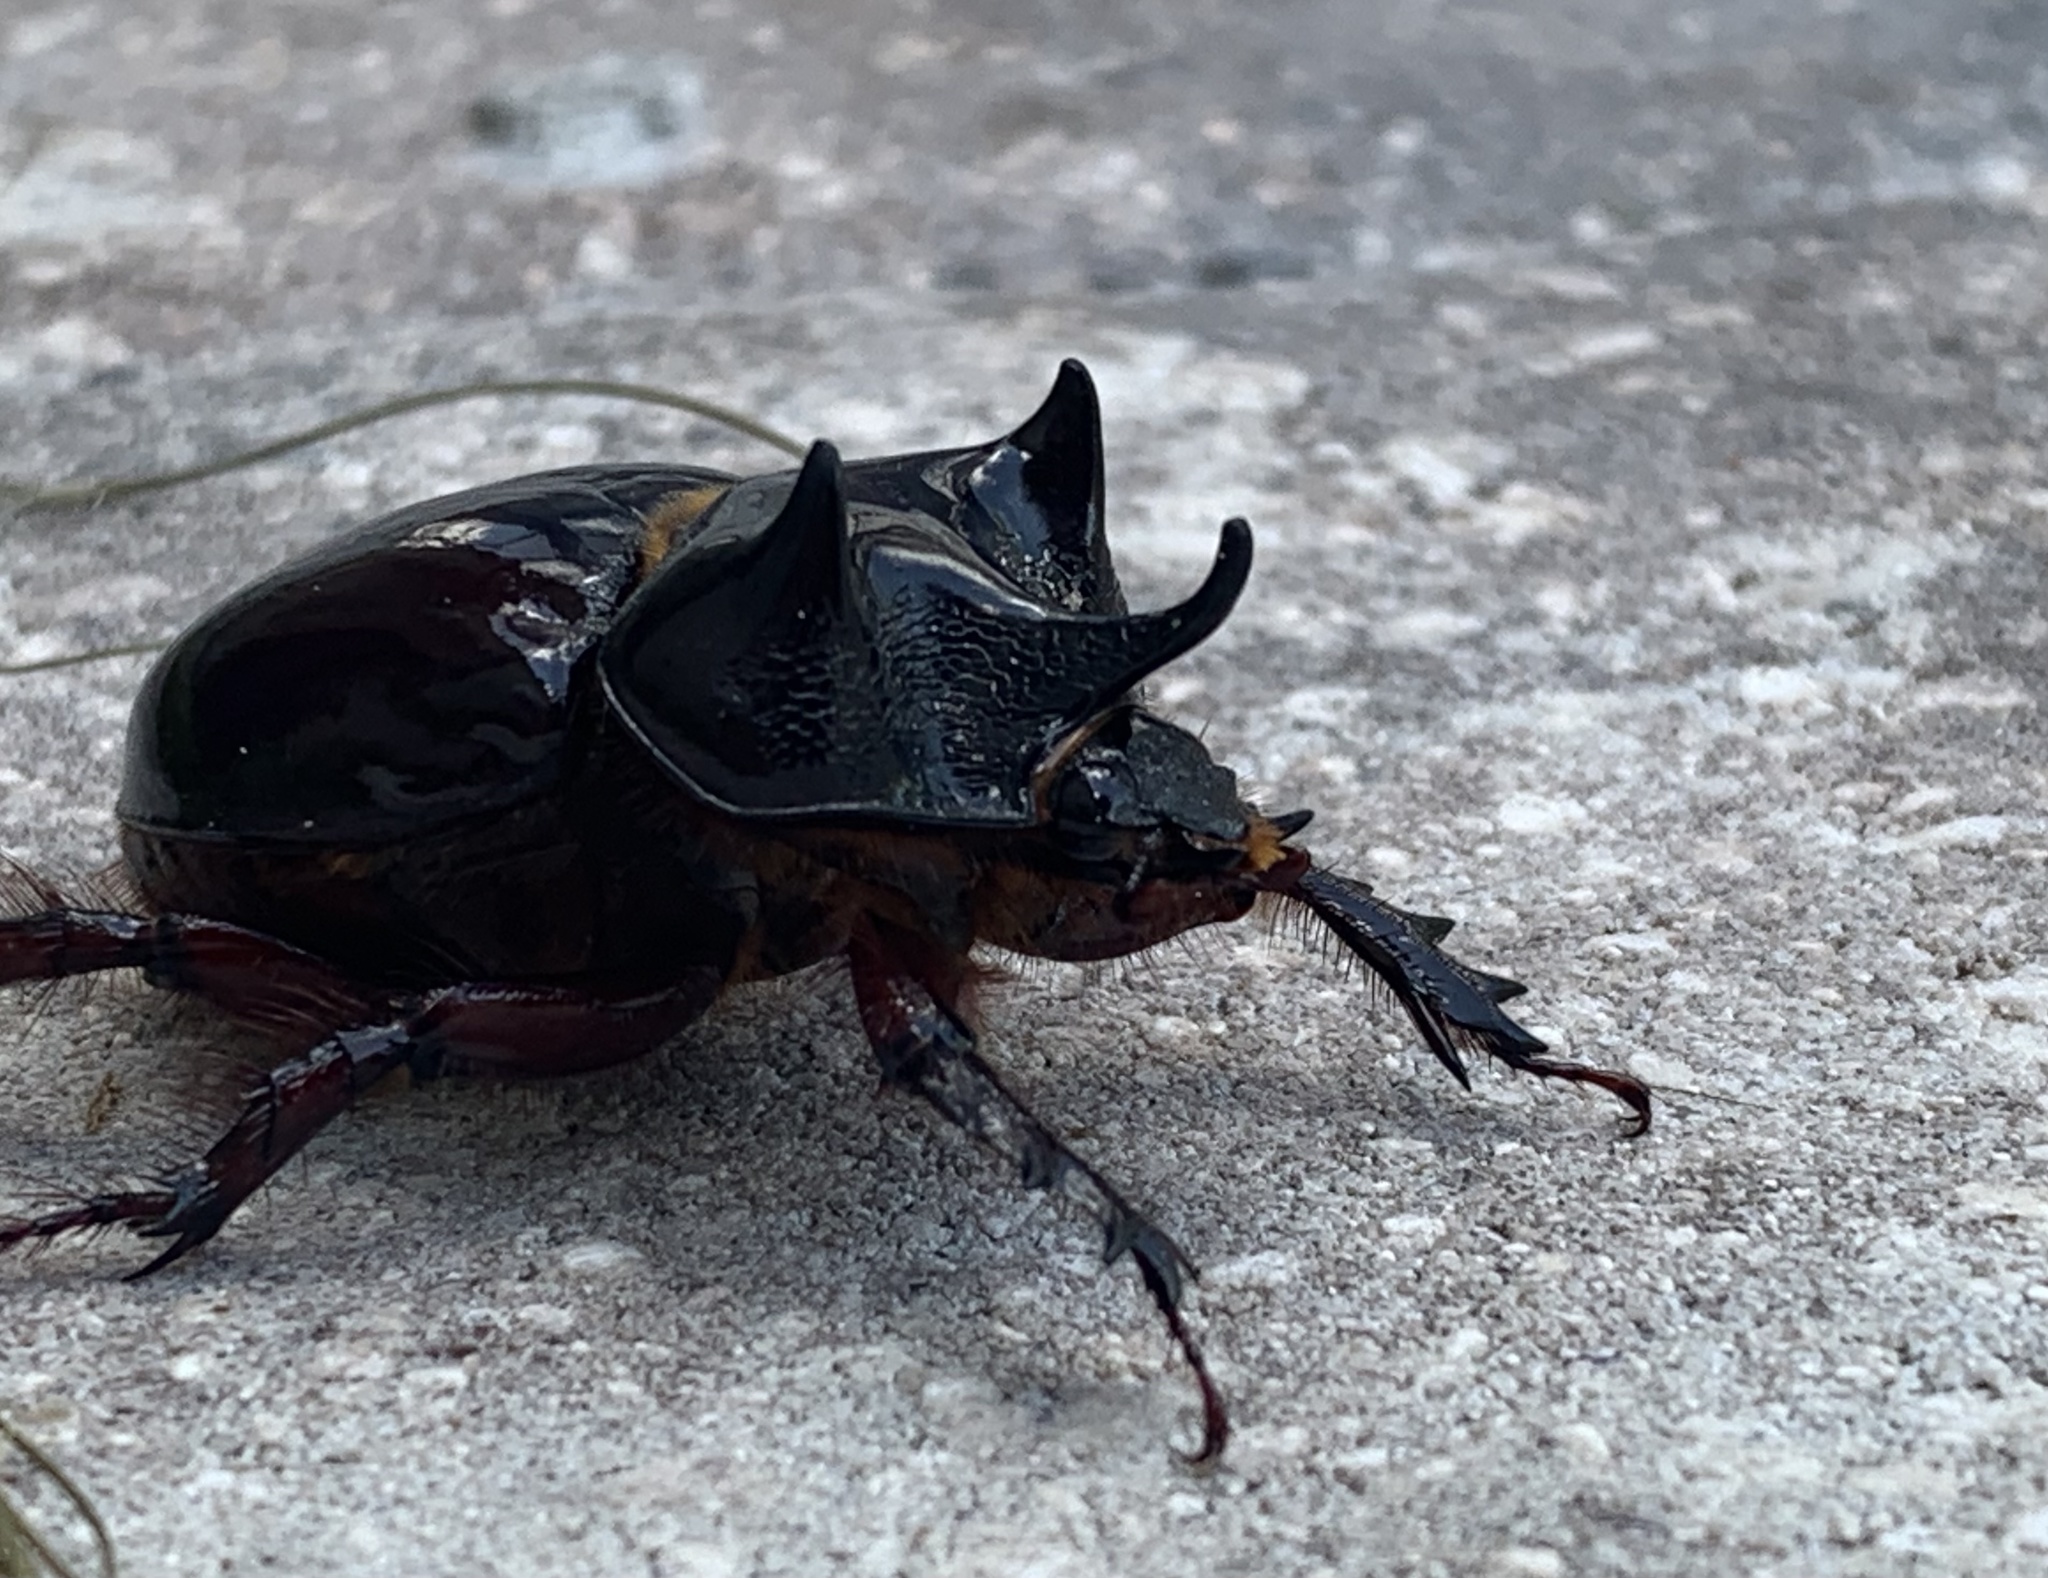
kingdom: Animalia
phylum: Arthropoda
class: Insecta
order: Coleoptera
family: Scarabaeidae
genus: Strategus
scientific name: Strategus antaeus
